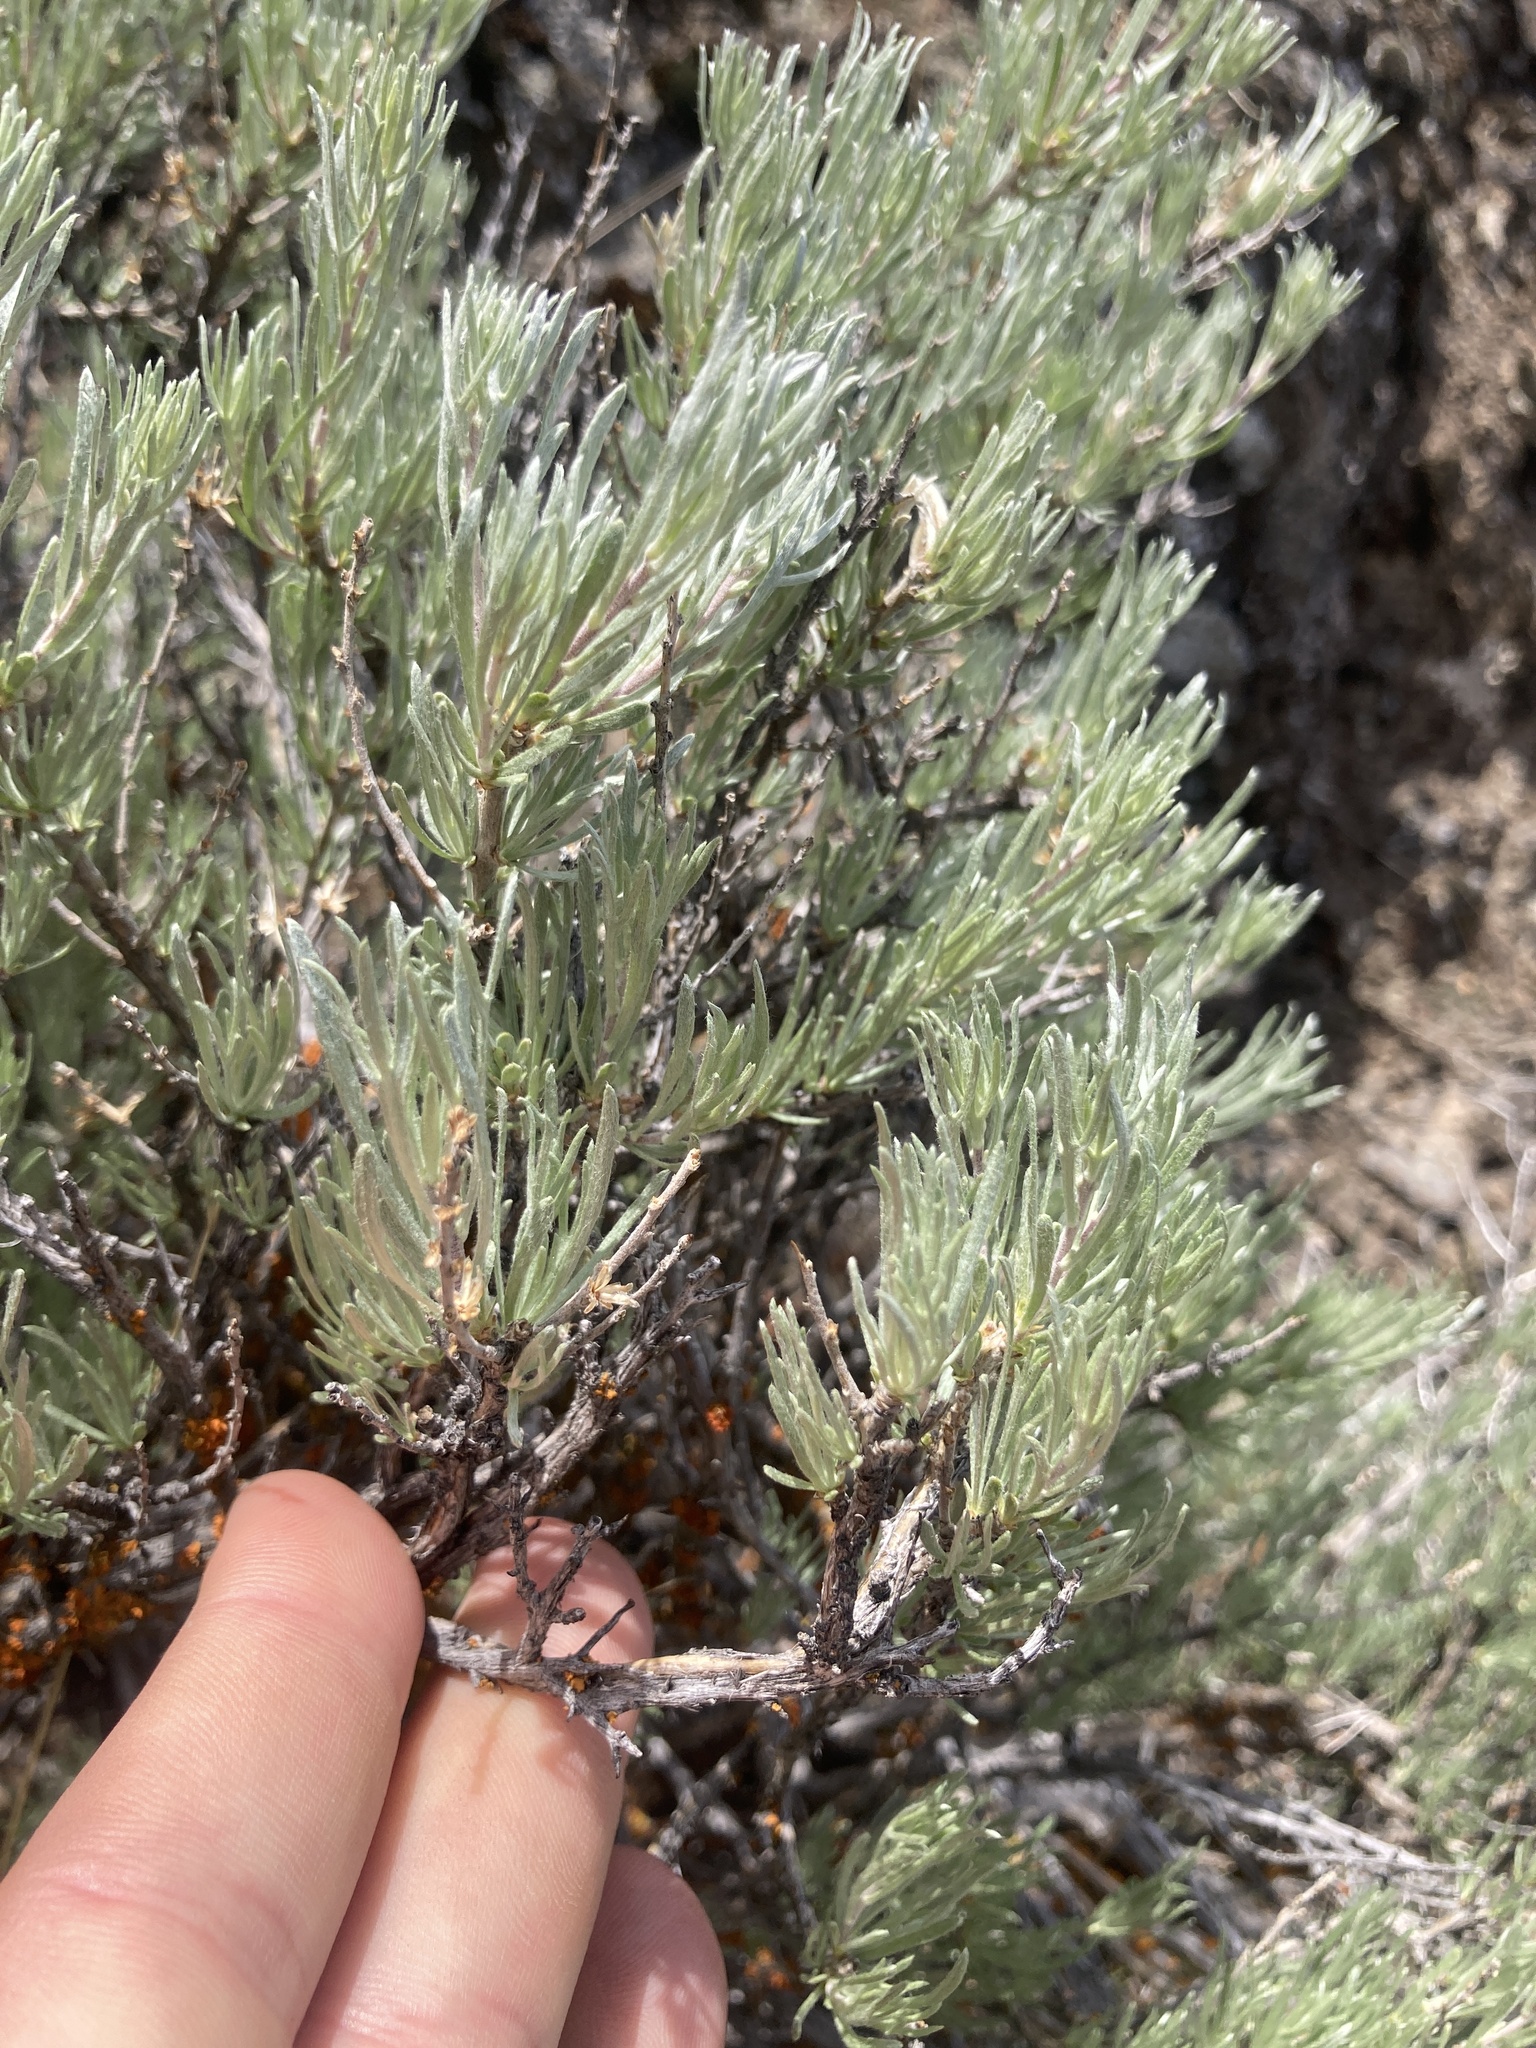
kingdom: Plantae
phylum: Tracheophyta
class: Magnoliopsida
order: Asterales
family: Asteraceae
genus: Artemisia
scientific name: Artemisia rigida
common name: Scabland sagebrush
